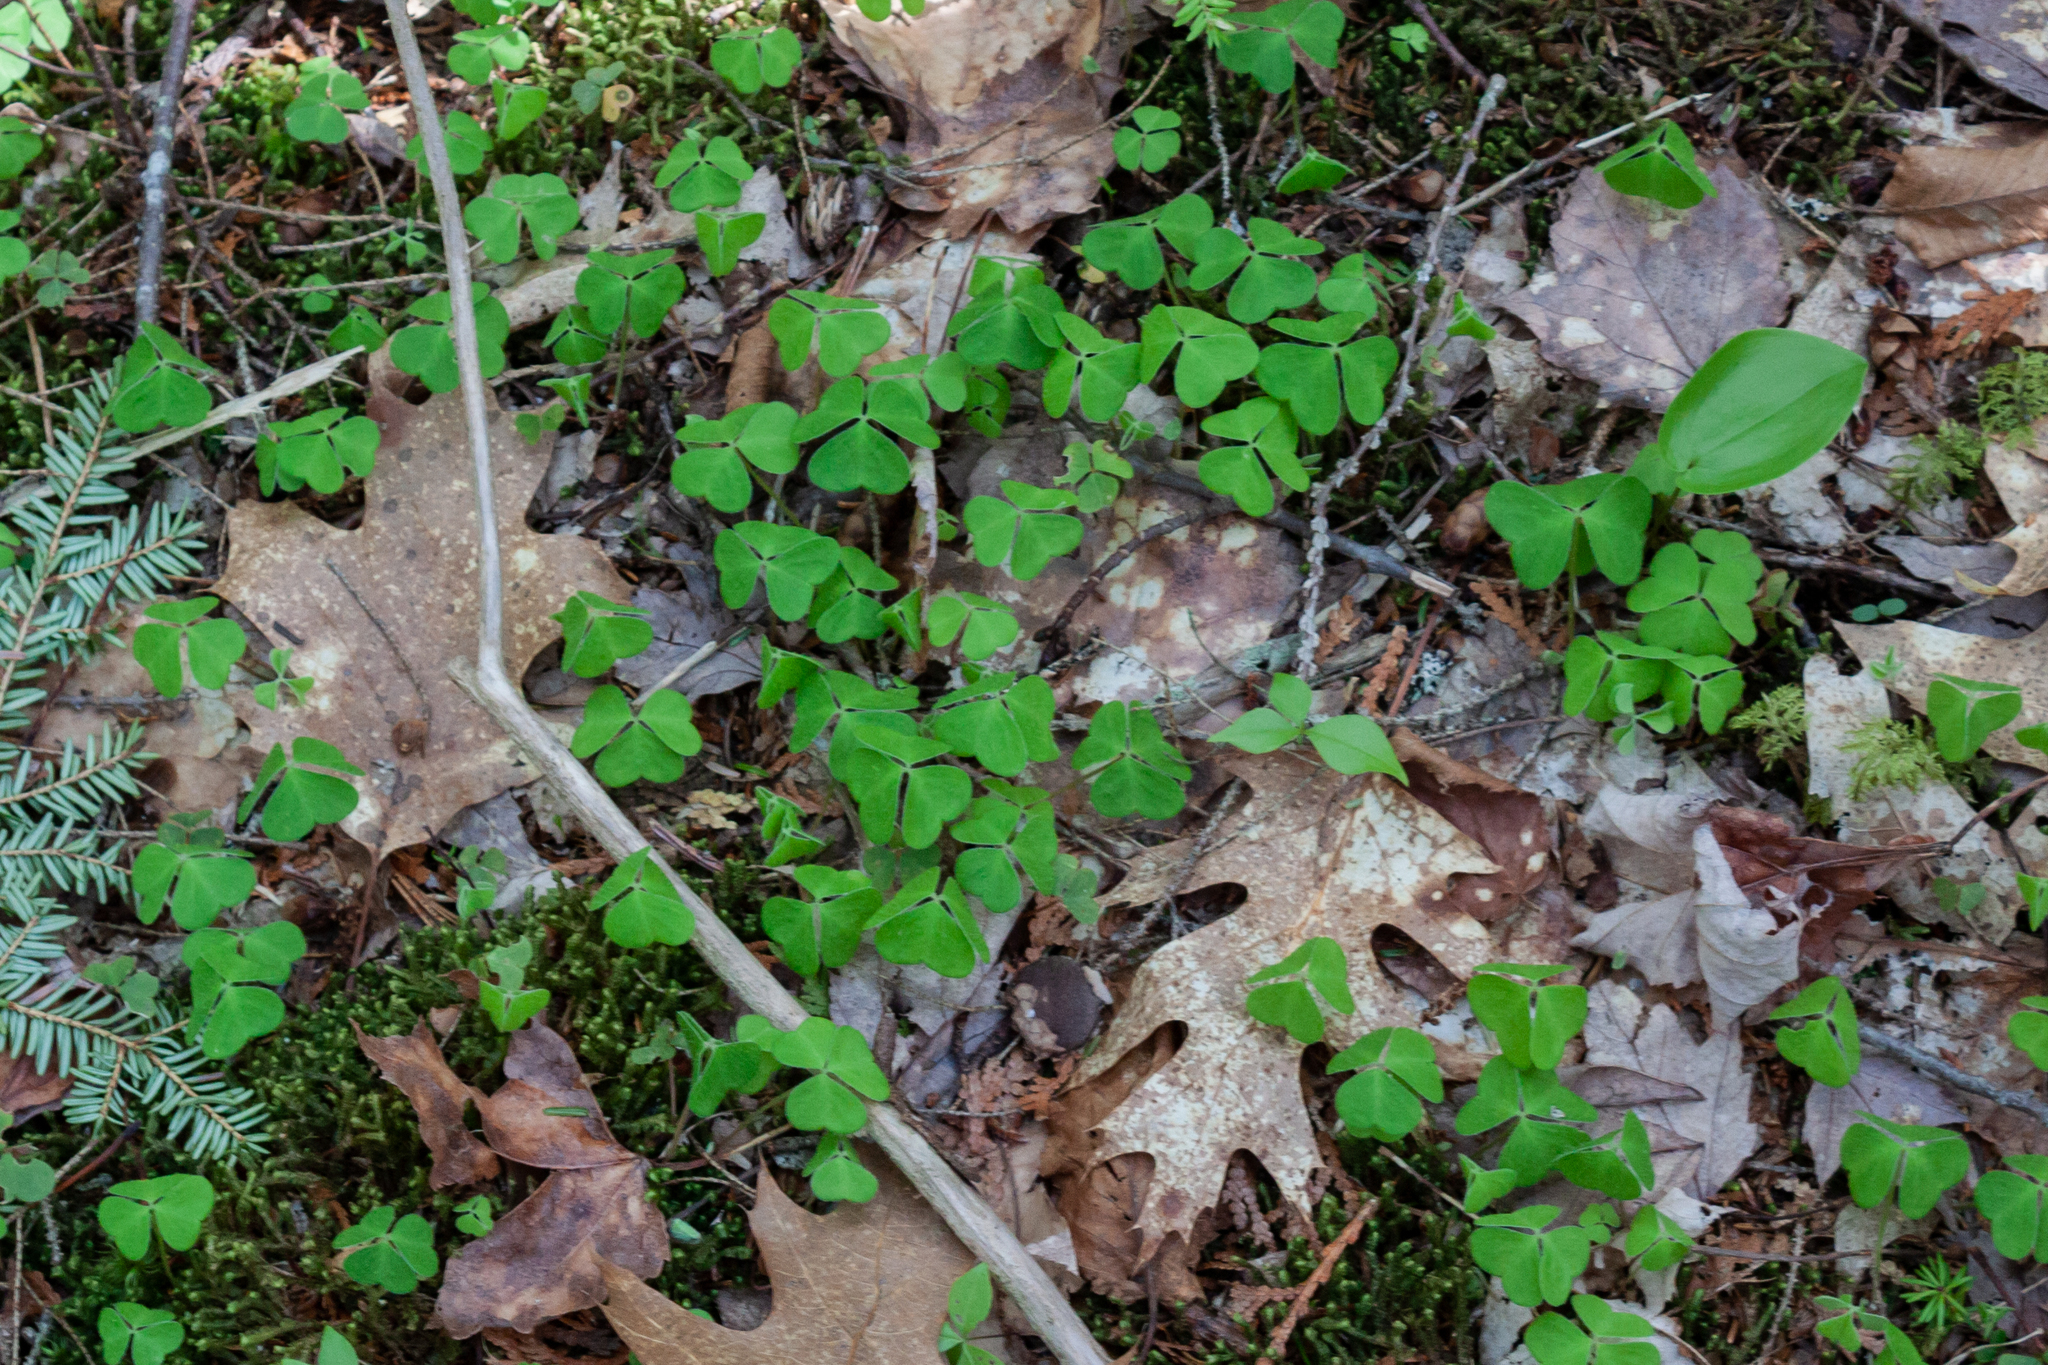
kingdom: Plantae
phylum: Tracheophyta
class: Magnoliopsida
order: Oxalidales
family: Oxalidaceae
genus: Oxalis
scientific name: Oxalis montana
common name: American wood-sorrel
